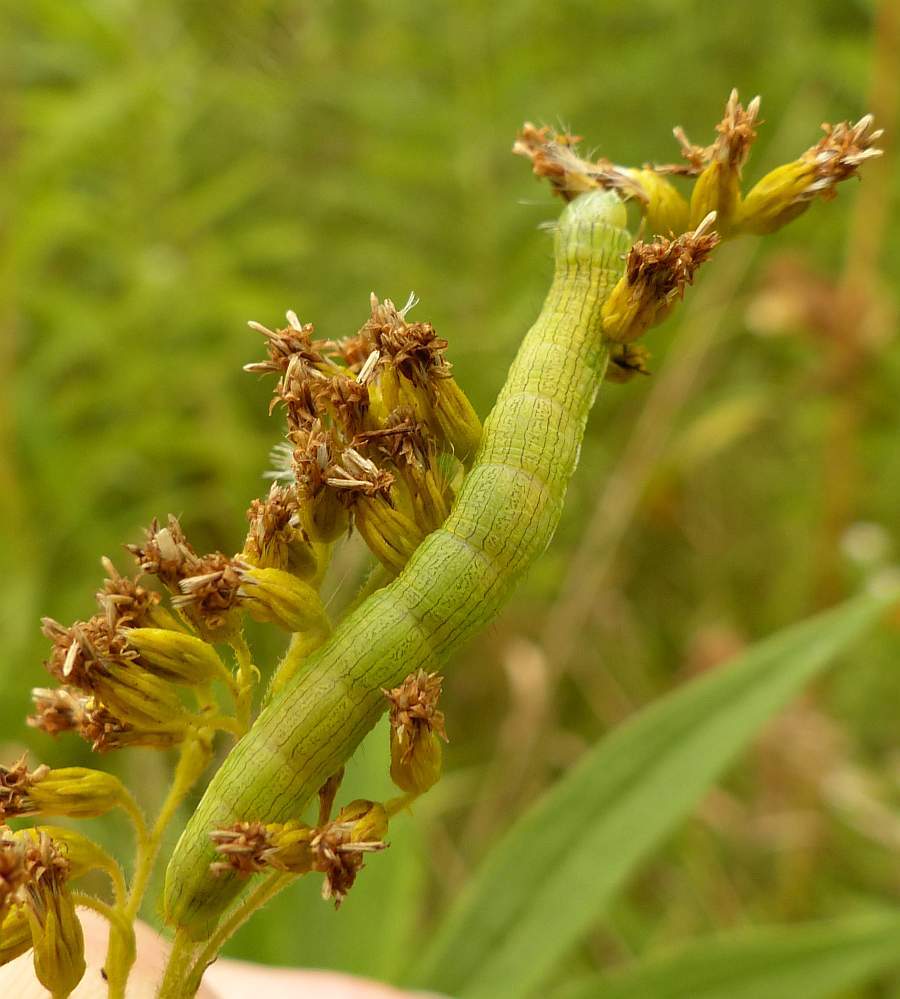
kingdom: Animalia
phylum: Arthropoda
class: Insecta
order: Lepidoptera
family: Noctuidae
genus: Cucullia
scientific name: Cucullia asteroides
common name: Asteroid moth
